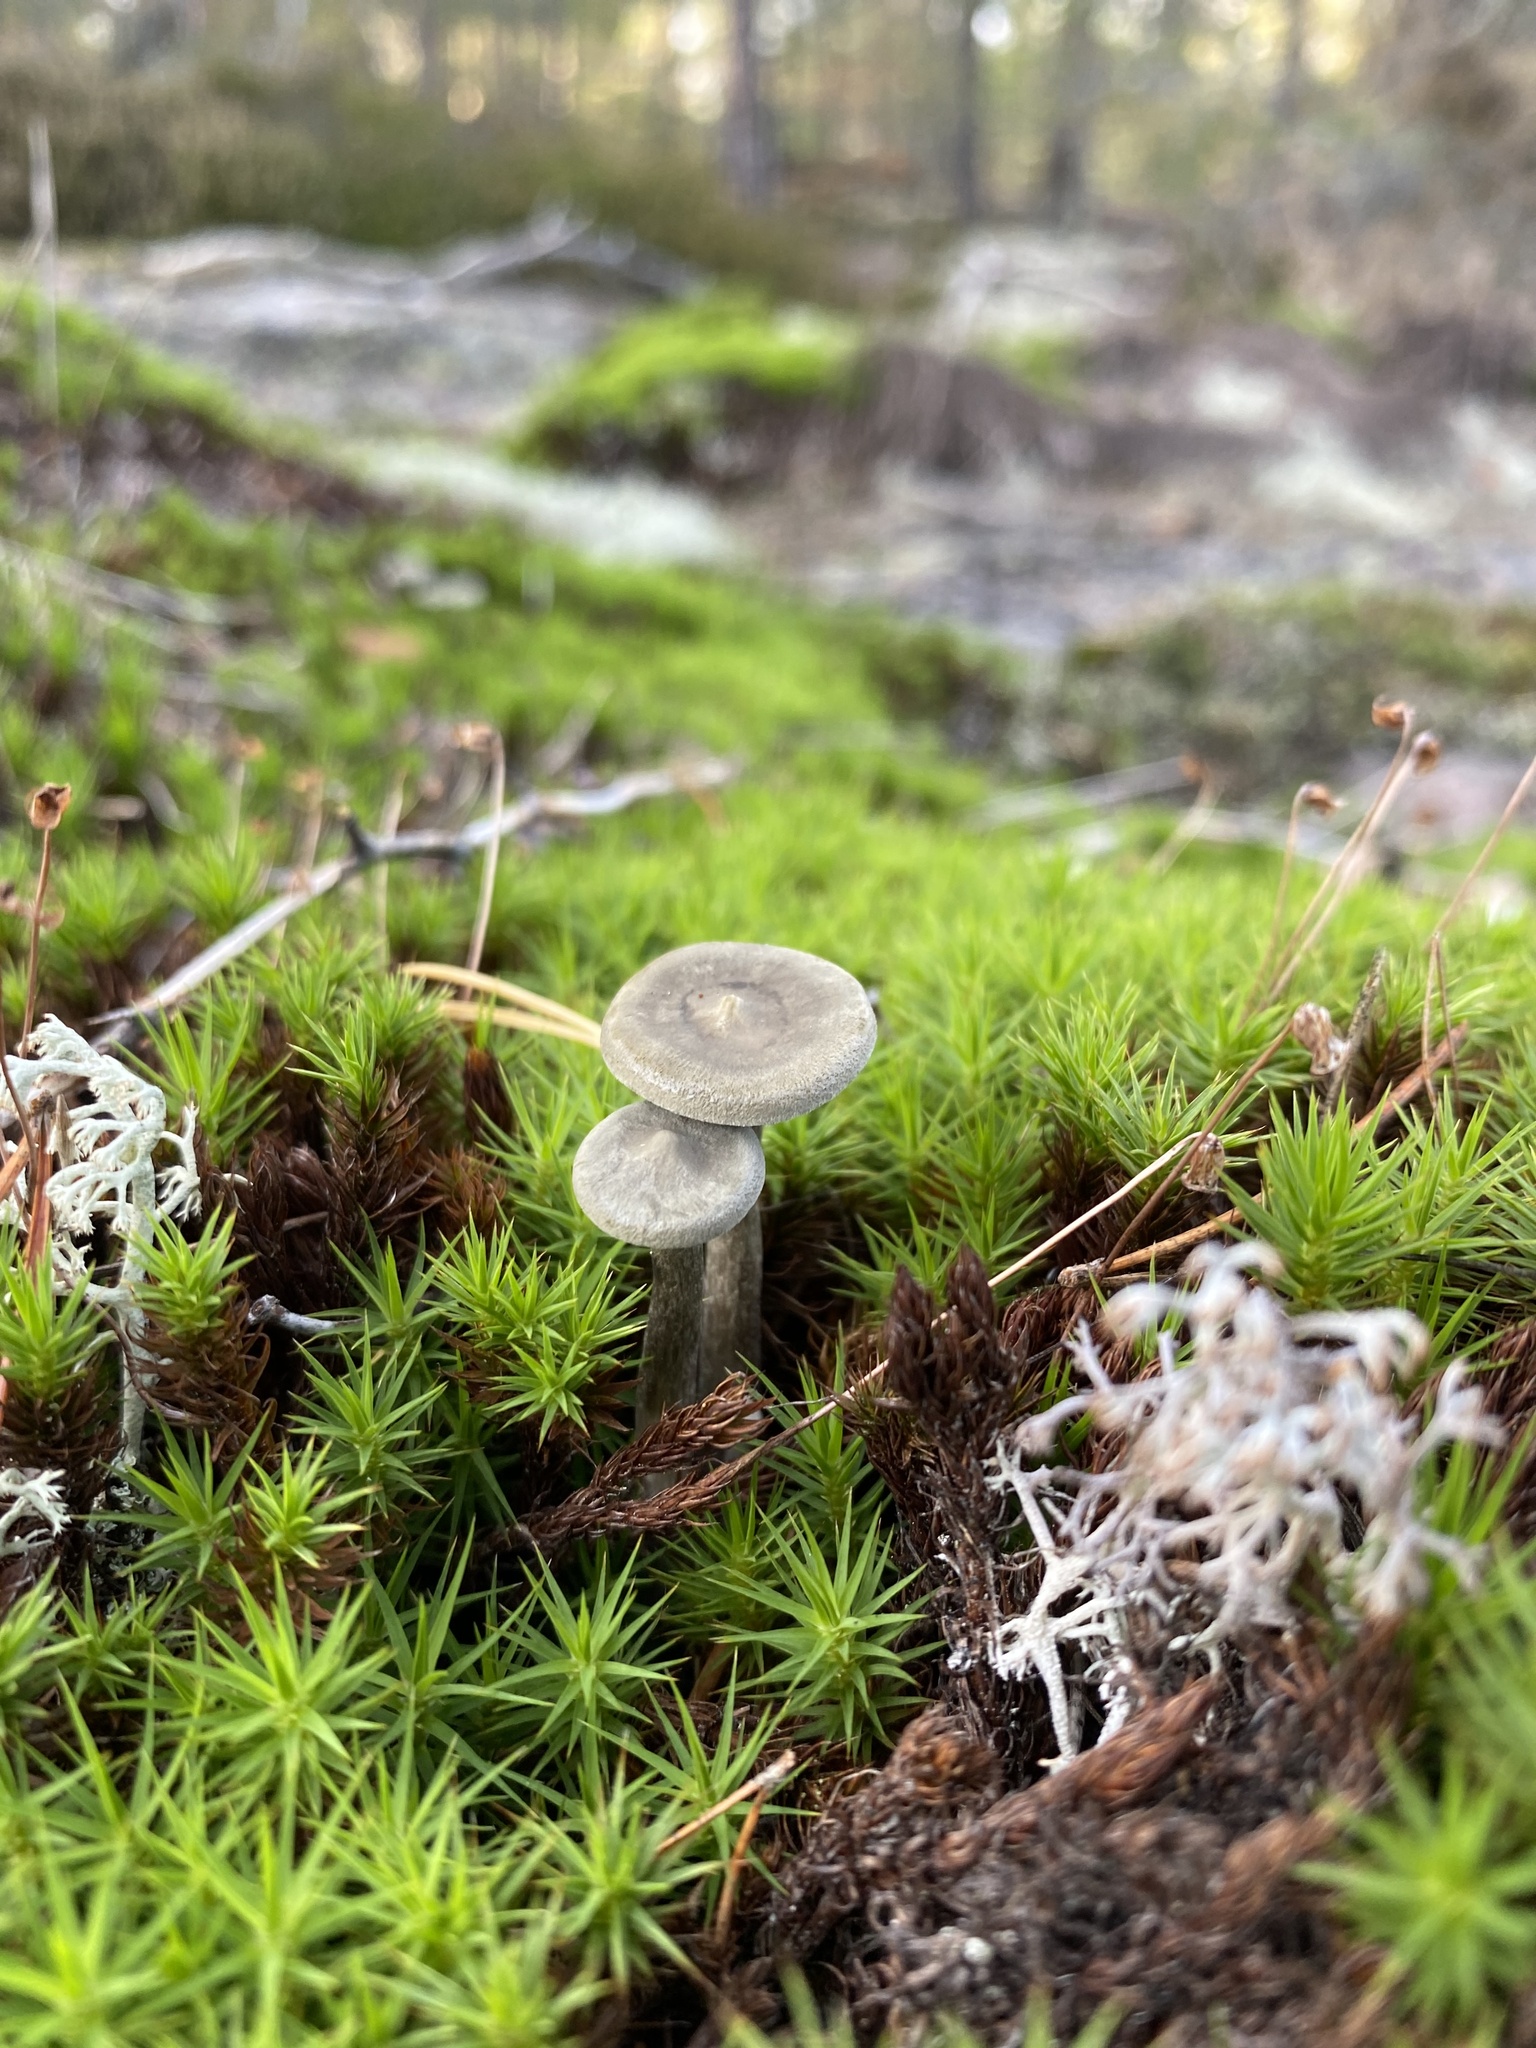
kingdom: Fungi
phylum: Basidiomycota
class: Agaricomycetes
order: Agaricales
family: Hygrophoraceae
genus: Cantharellula
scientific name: Cantharellula umbonata
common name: The humpback
